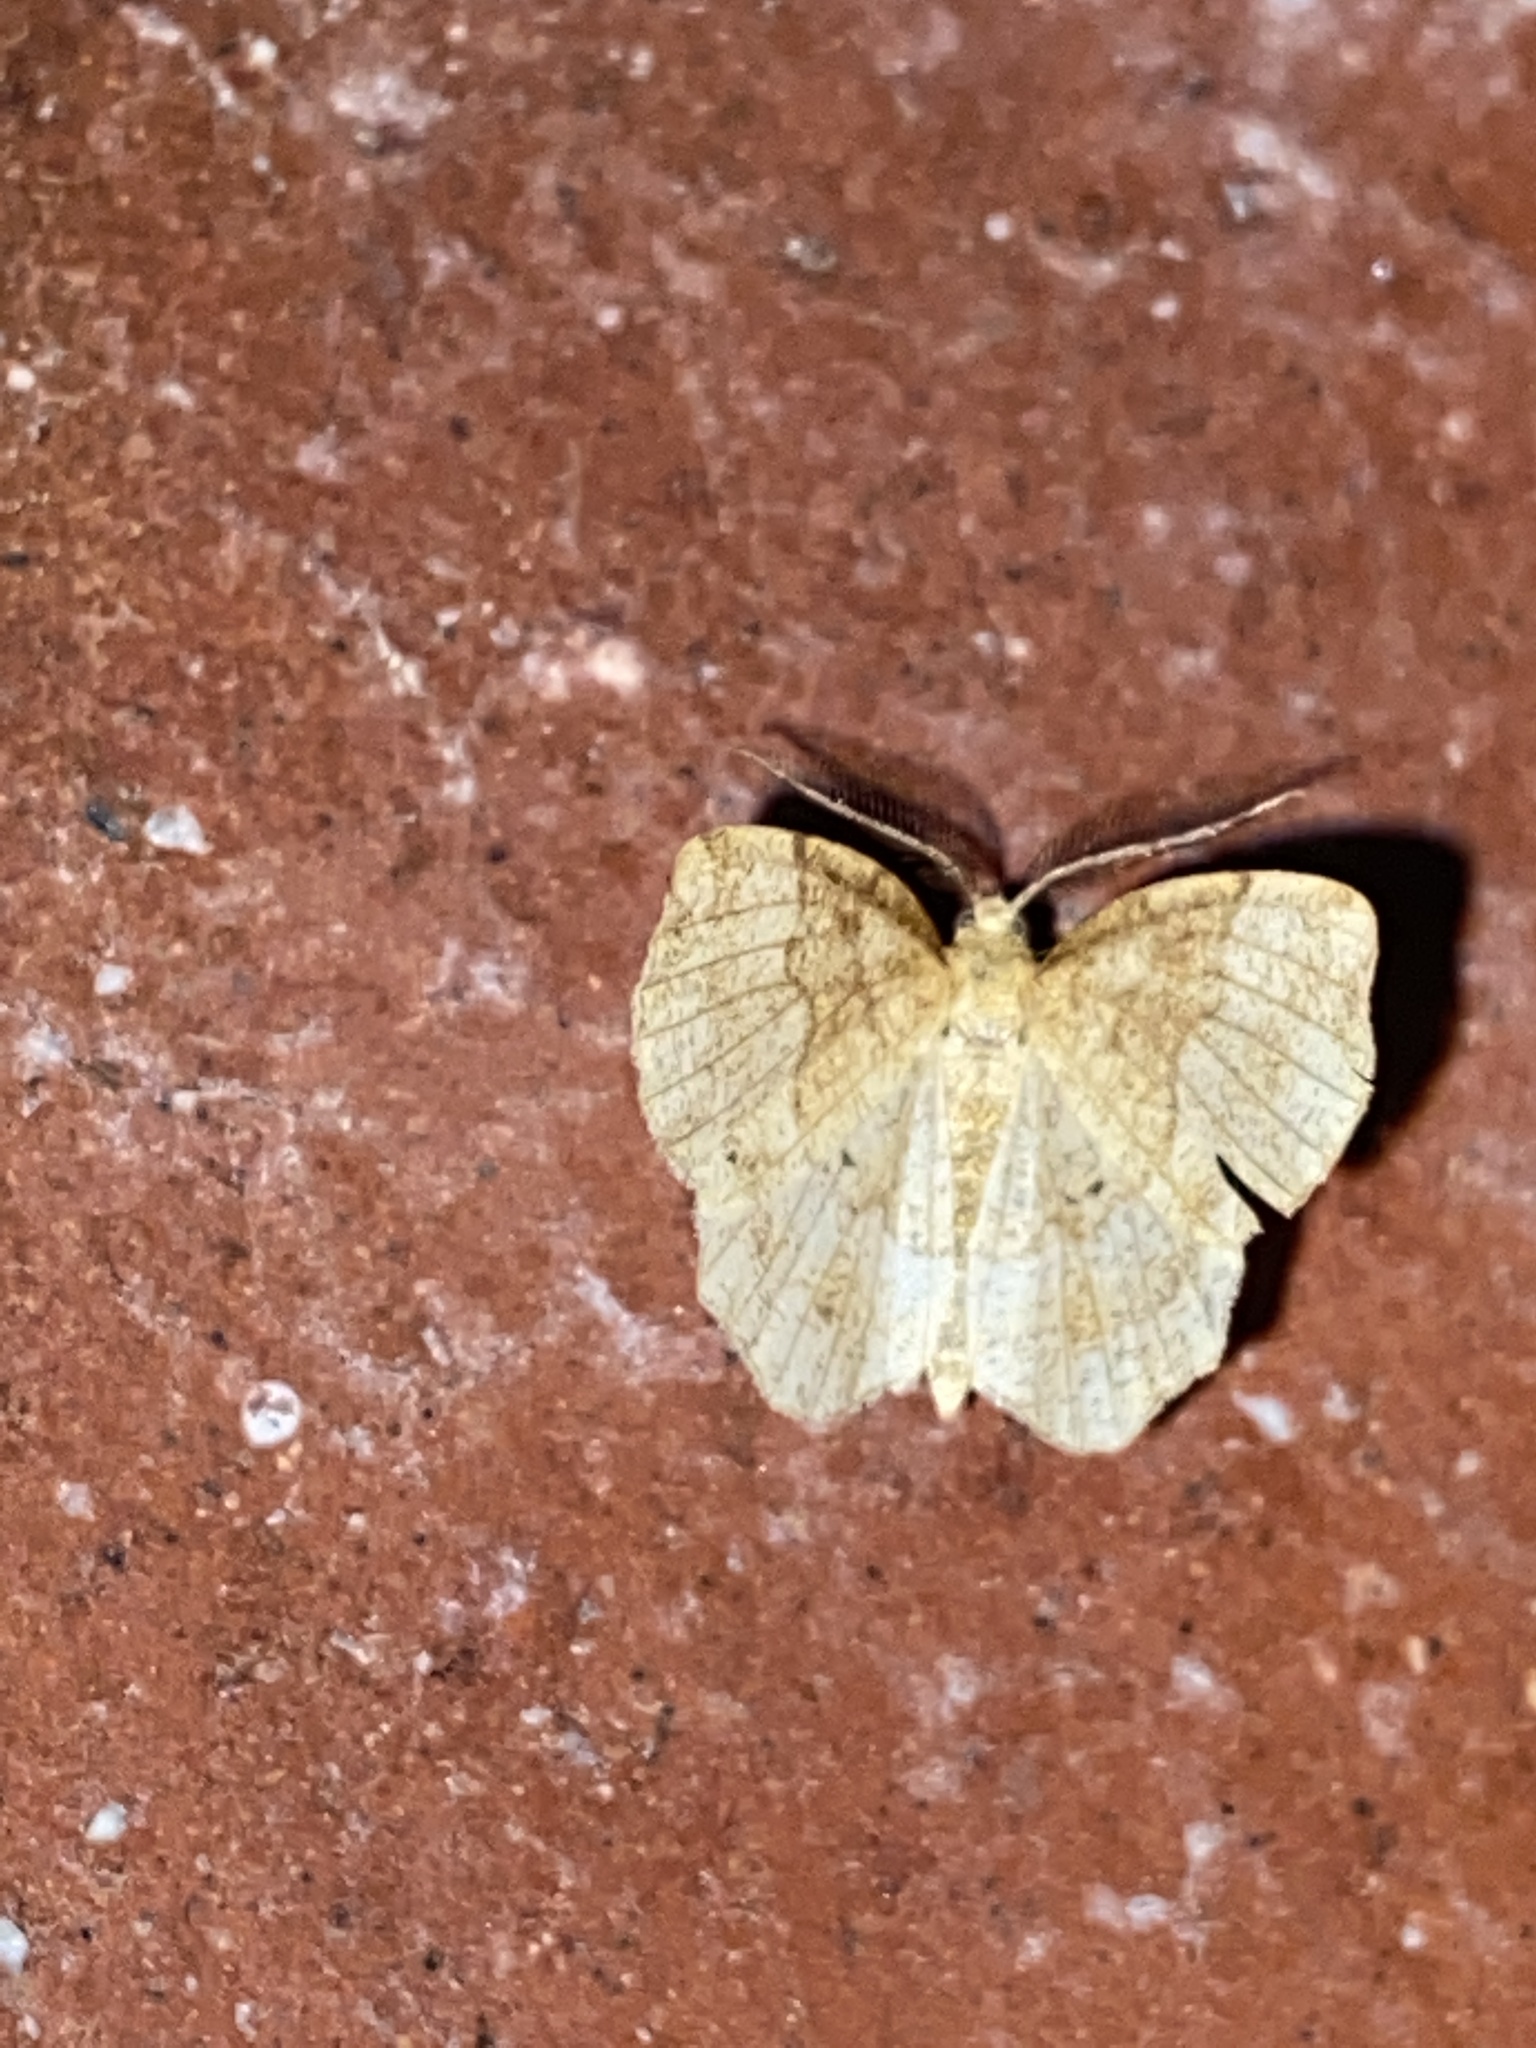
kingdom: Animalia
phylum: Arthropoda
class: Insecta
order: Lepidoptera
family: Geometridae
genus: Cepphis
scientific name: Cepphis advenaria
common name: Little thorn
